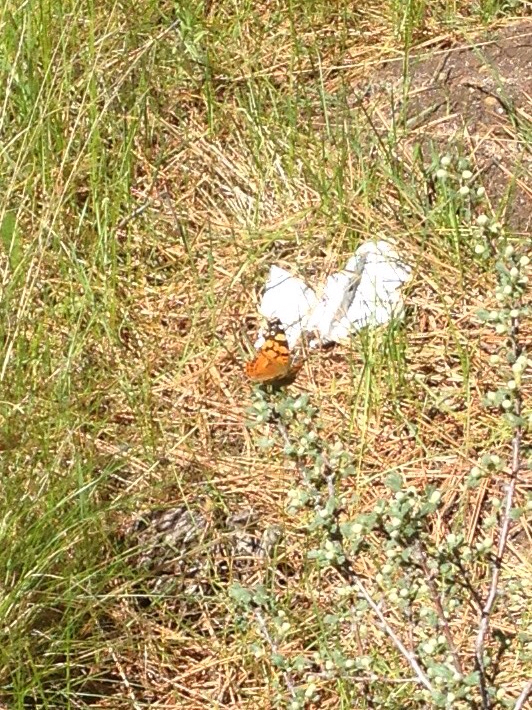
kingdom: Animalia
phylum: Arthropoda
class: Insecta
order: Lepidoptera
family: Nymphalidae
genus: Vanessa
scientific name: Vanessa annabella
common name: West coast lady
